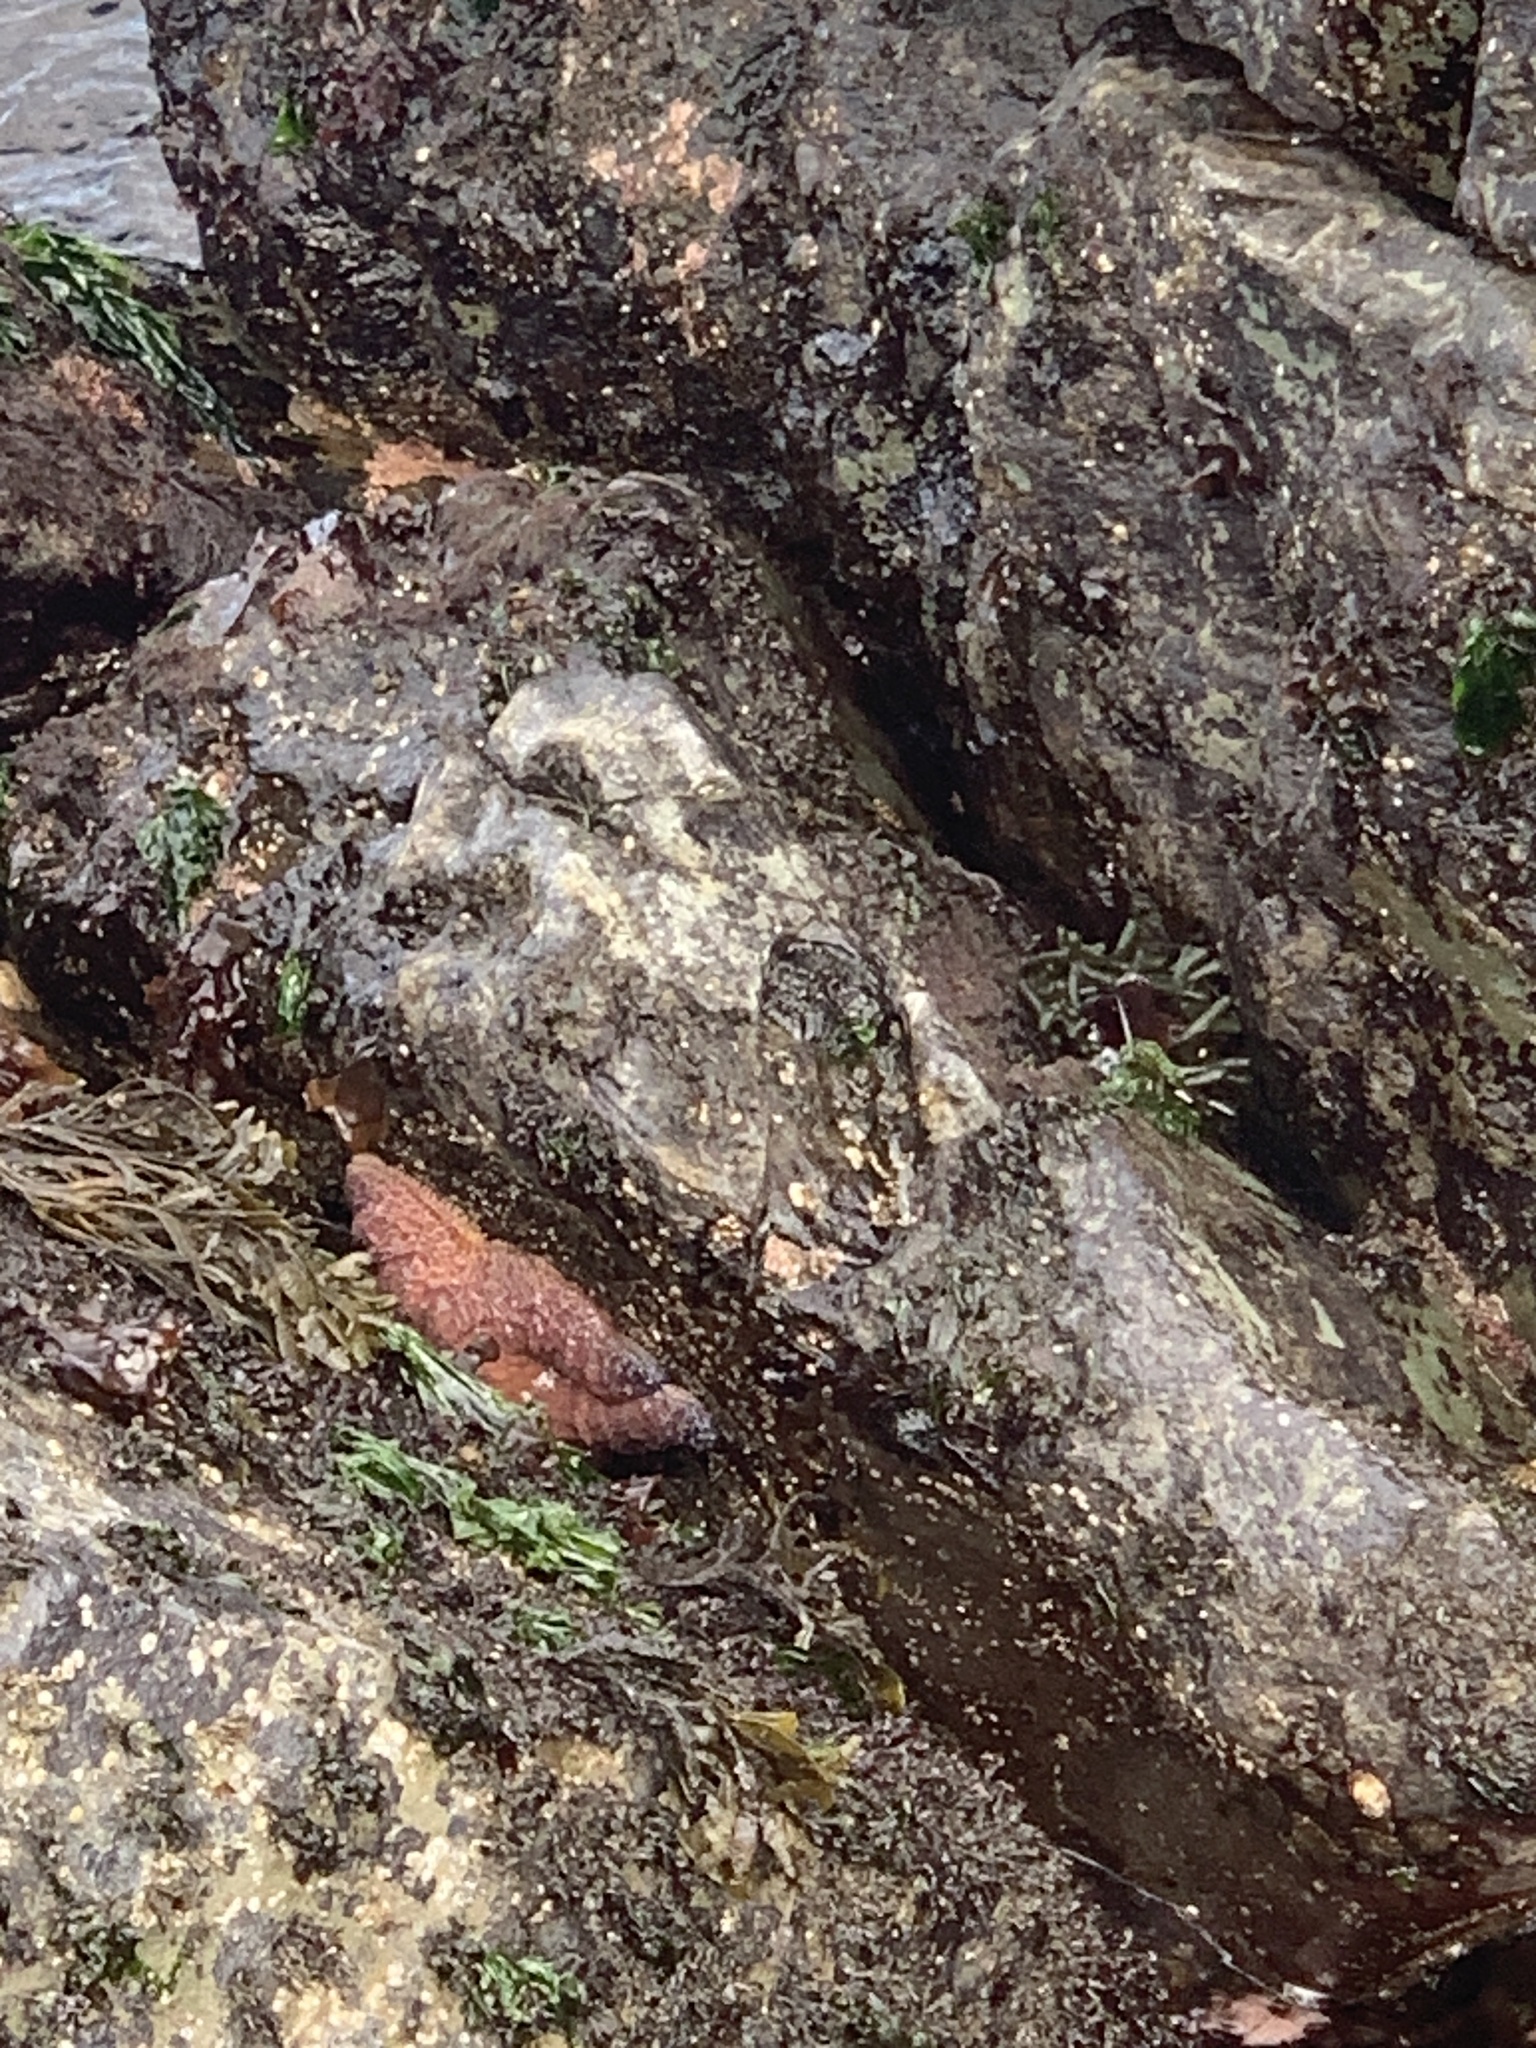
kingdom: Animalia
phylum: Echinodermata
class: Asteroidea
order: Forcipulatida
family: Asteriidae
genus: Pisaster
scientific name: Pisaster ochraceus
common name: Ochre stars
